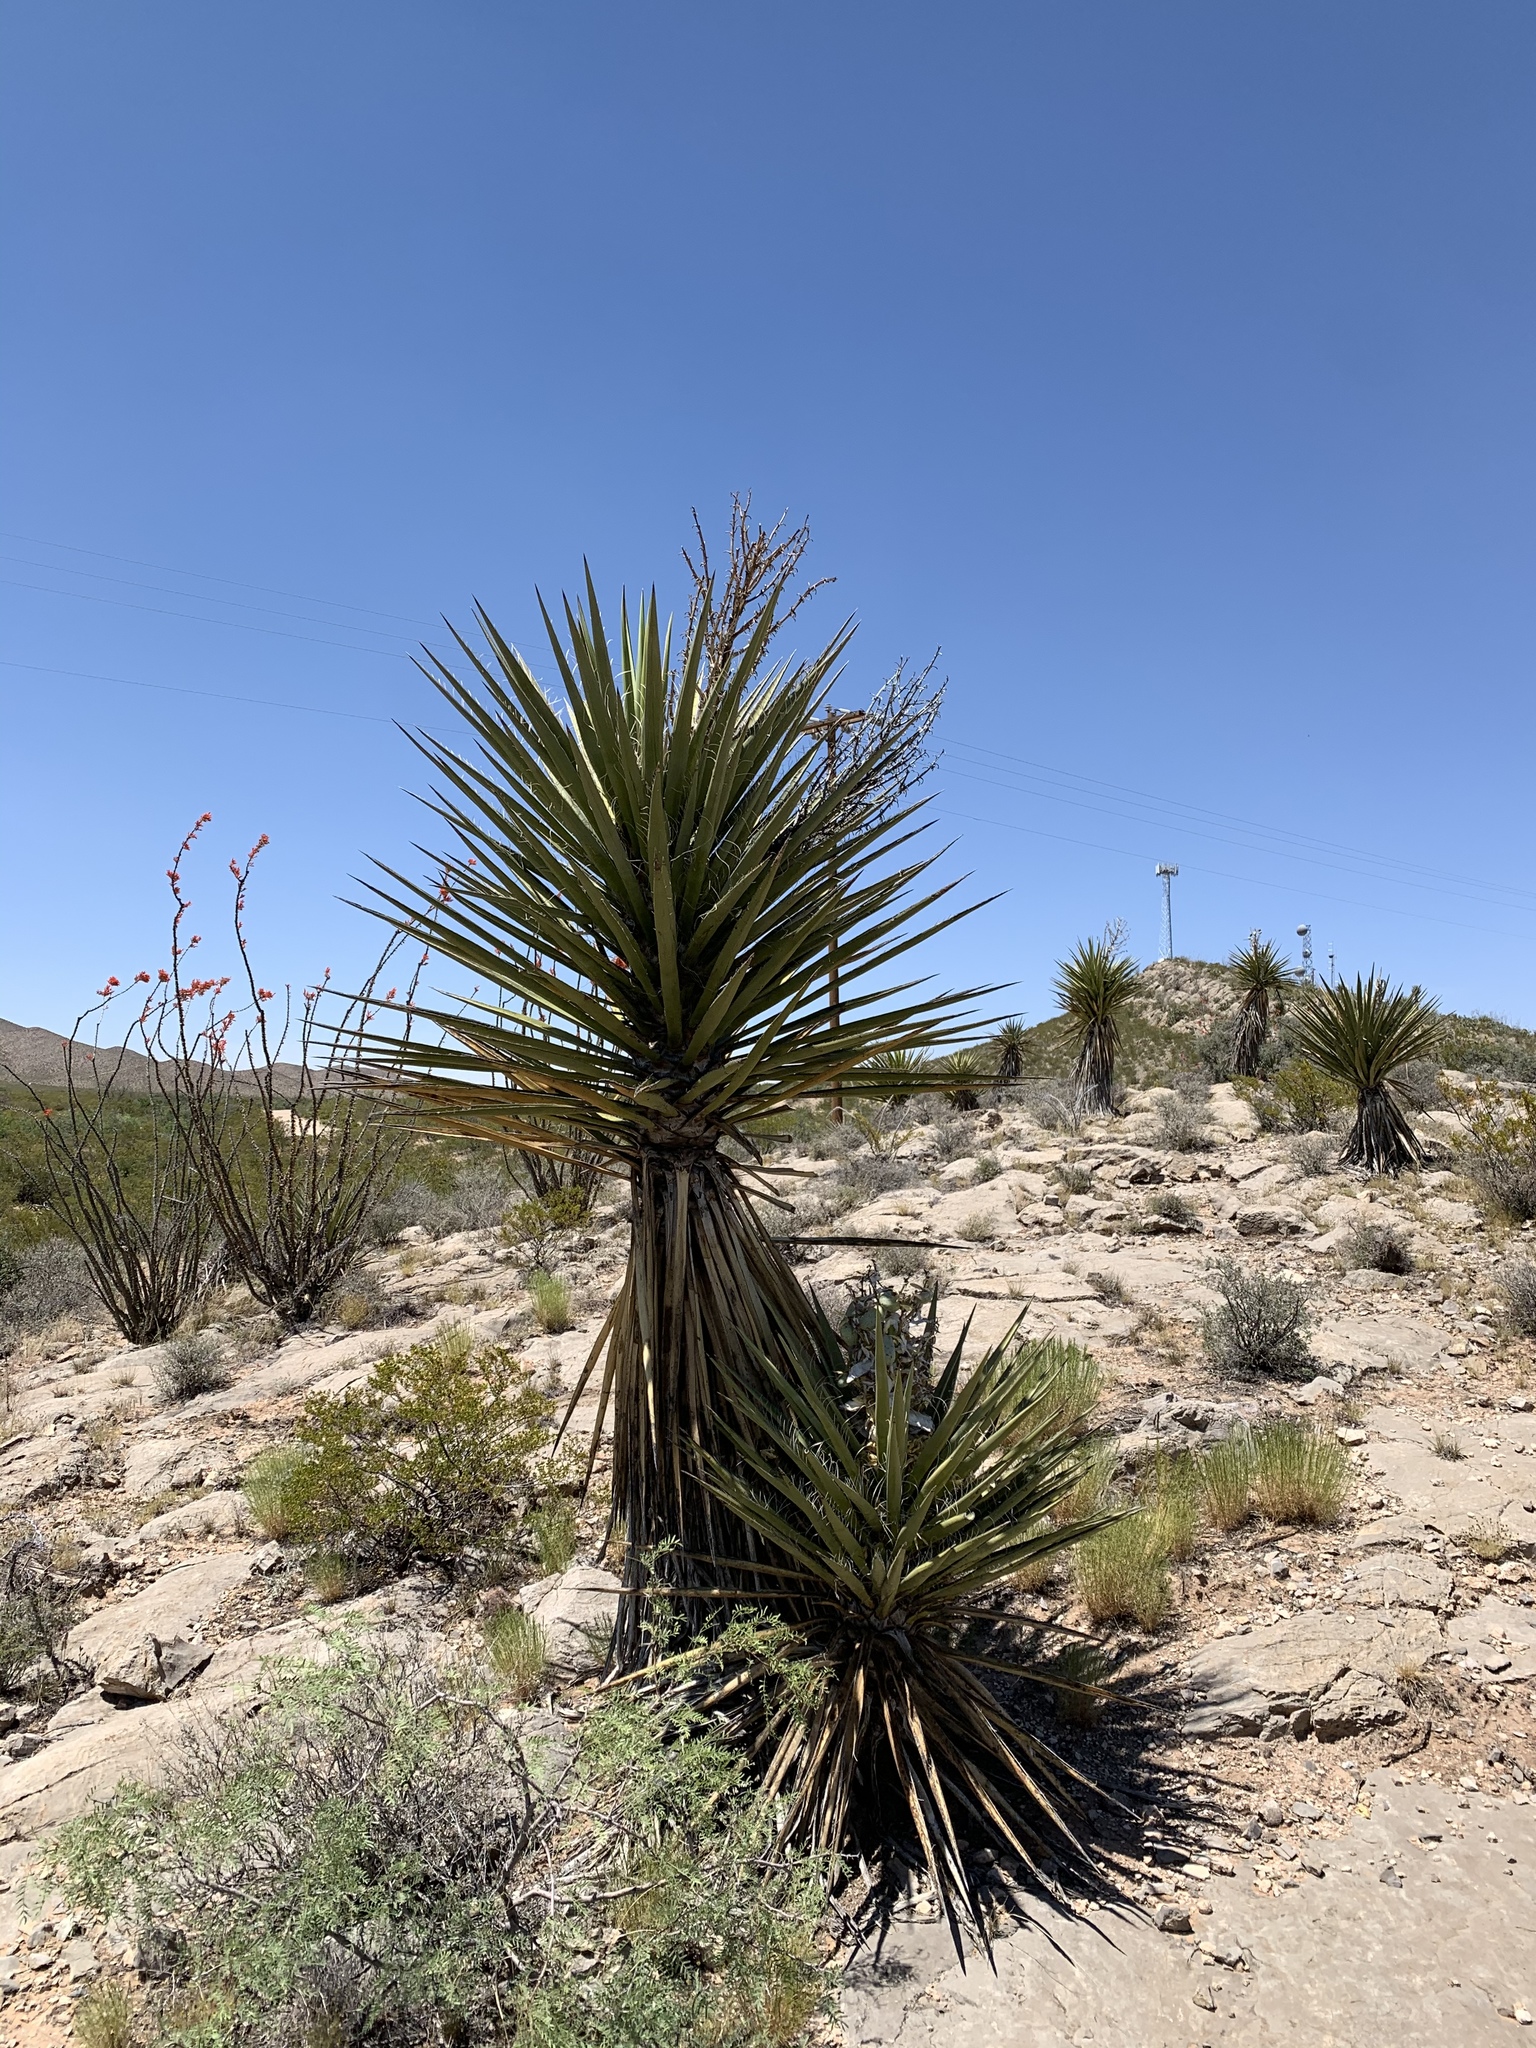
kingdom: Plantae
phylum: Tracheophyta
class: Liliopsida
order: Asparagales
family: Asparagaceae
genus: Yucca
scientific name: Yucca treculiana
